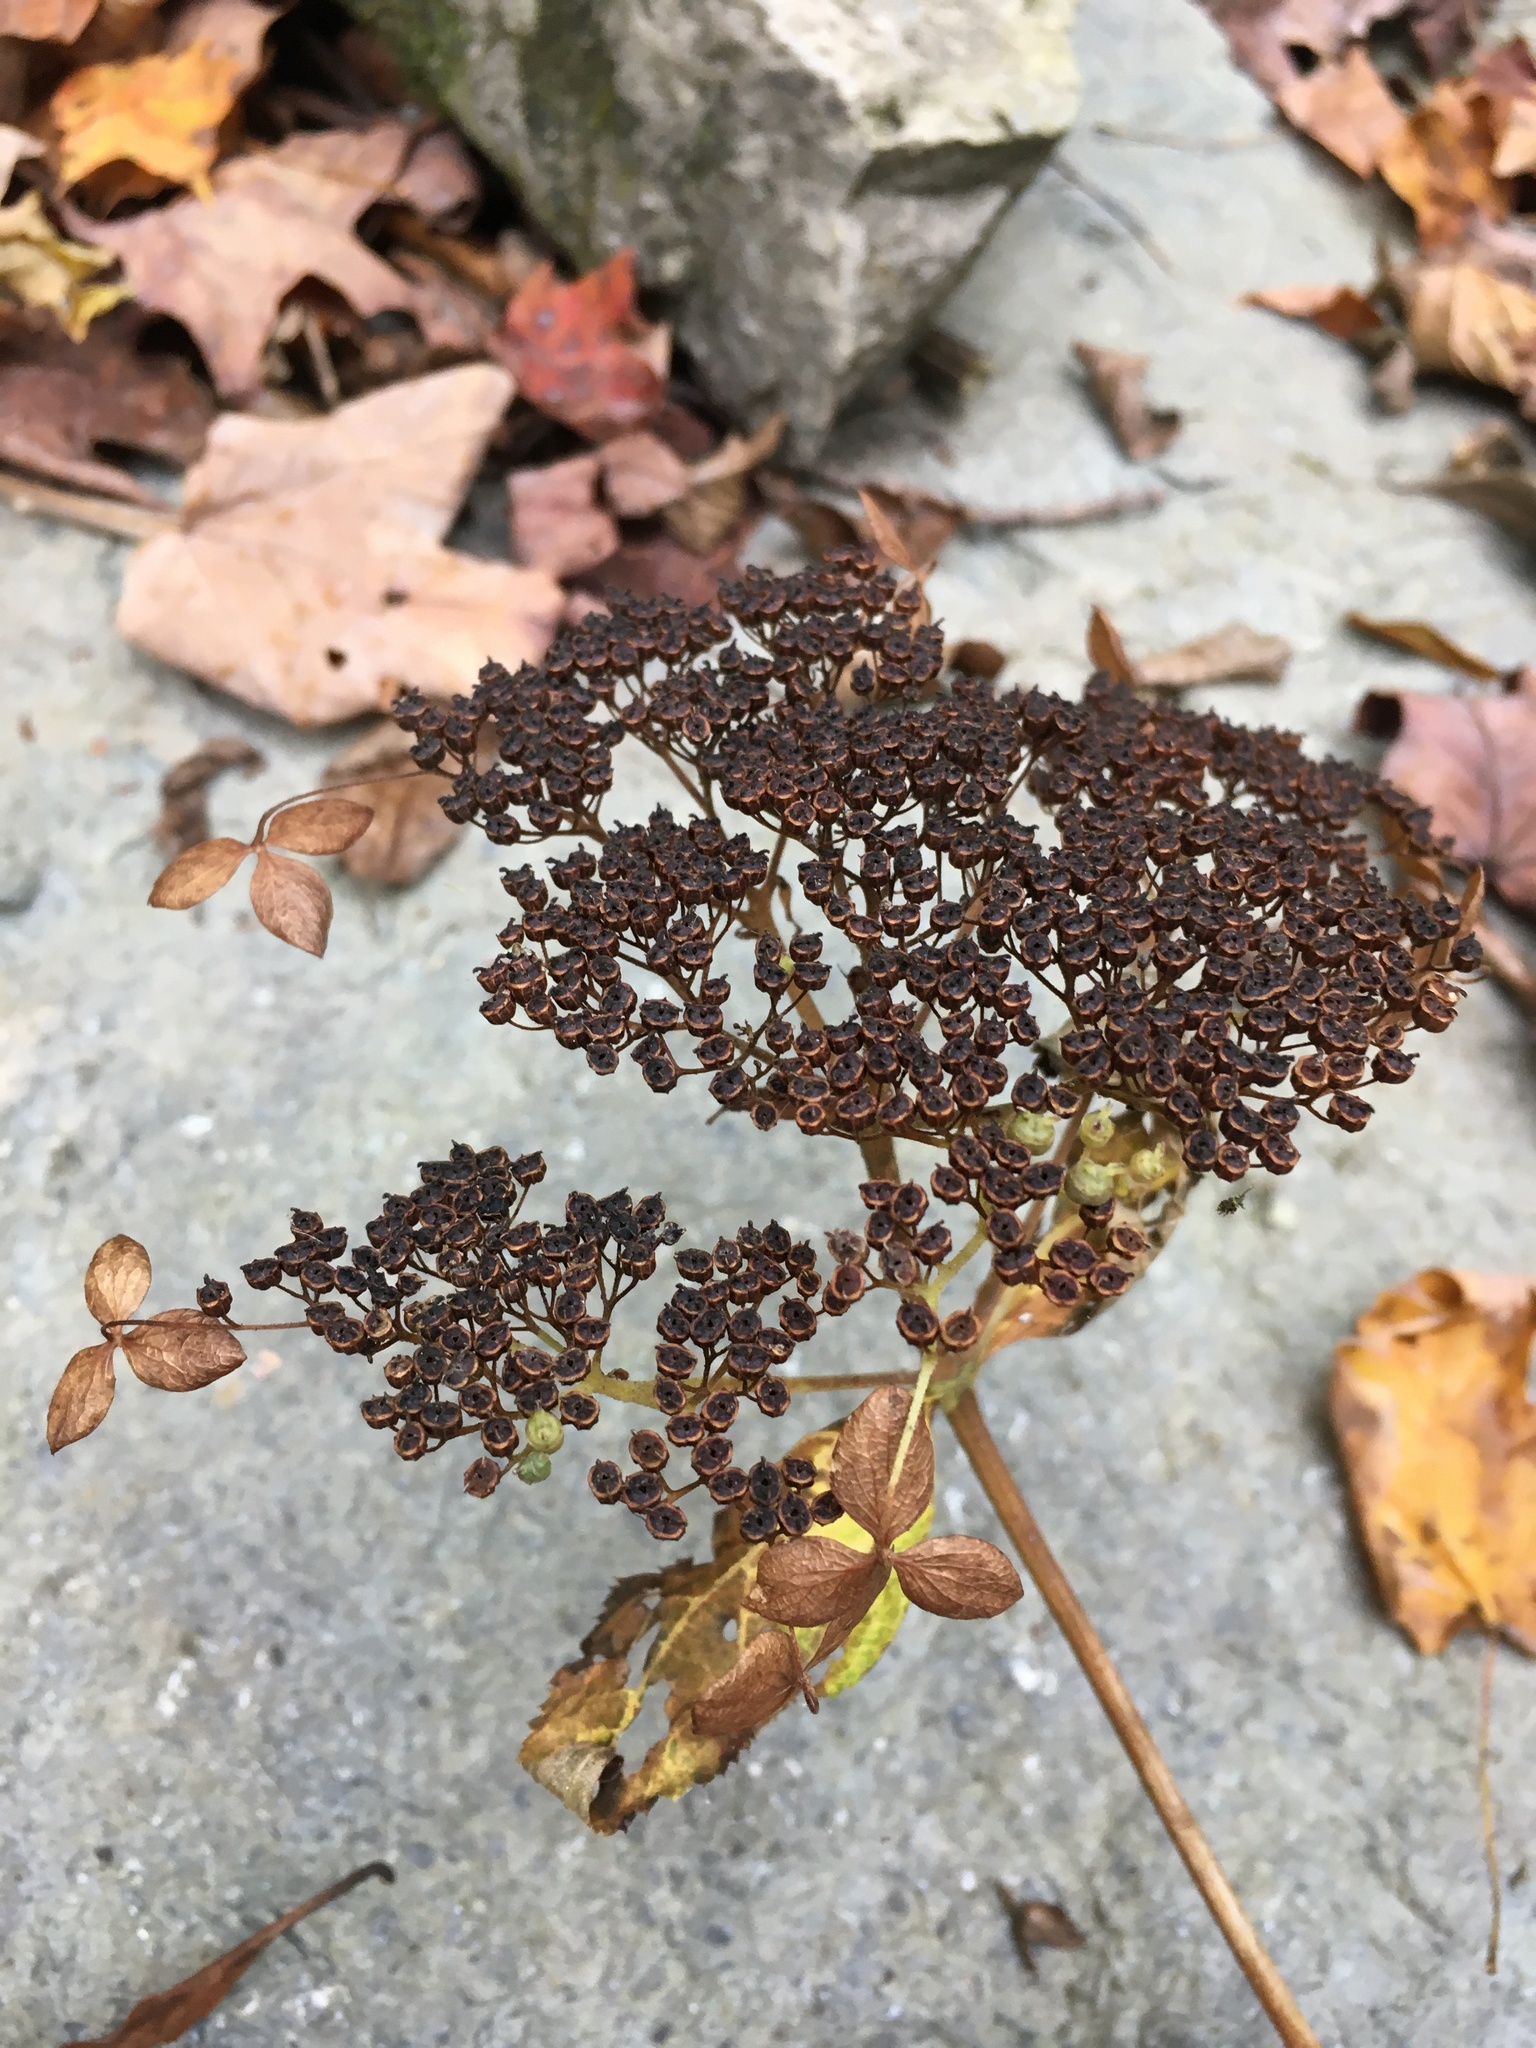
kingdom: Plantae
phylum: Tracheophyta
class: Magnoliopsida
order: Cornales
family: Hydrangeaceae
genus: Hydrangea
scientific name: Hydrangea arborescens
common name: Sevenbark
